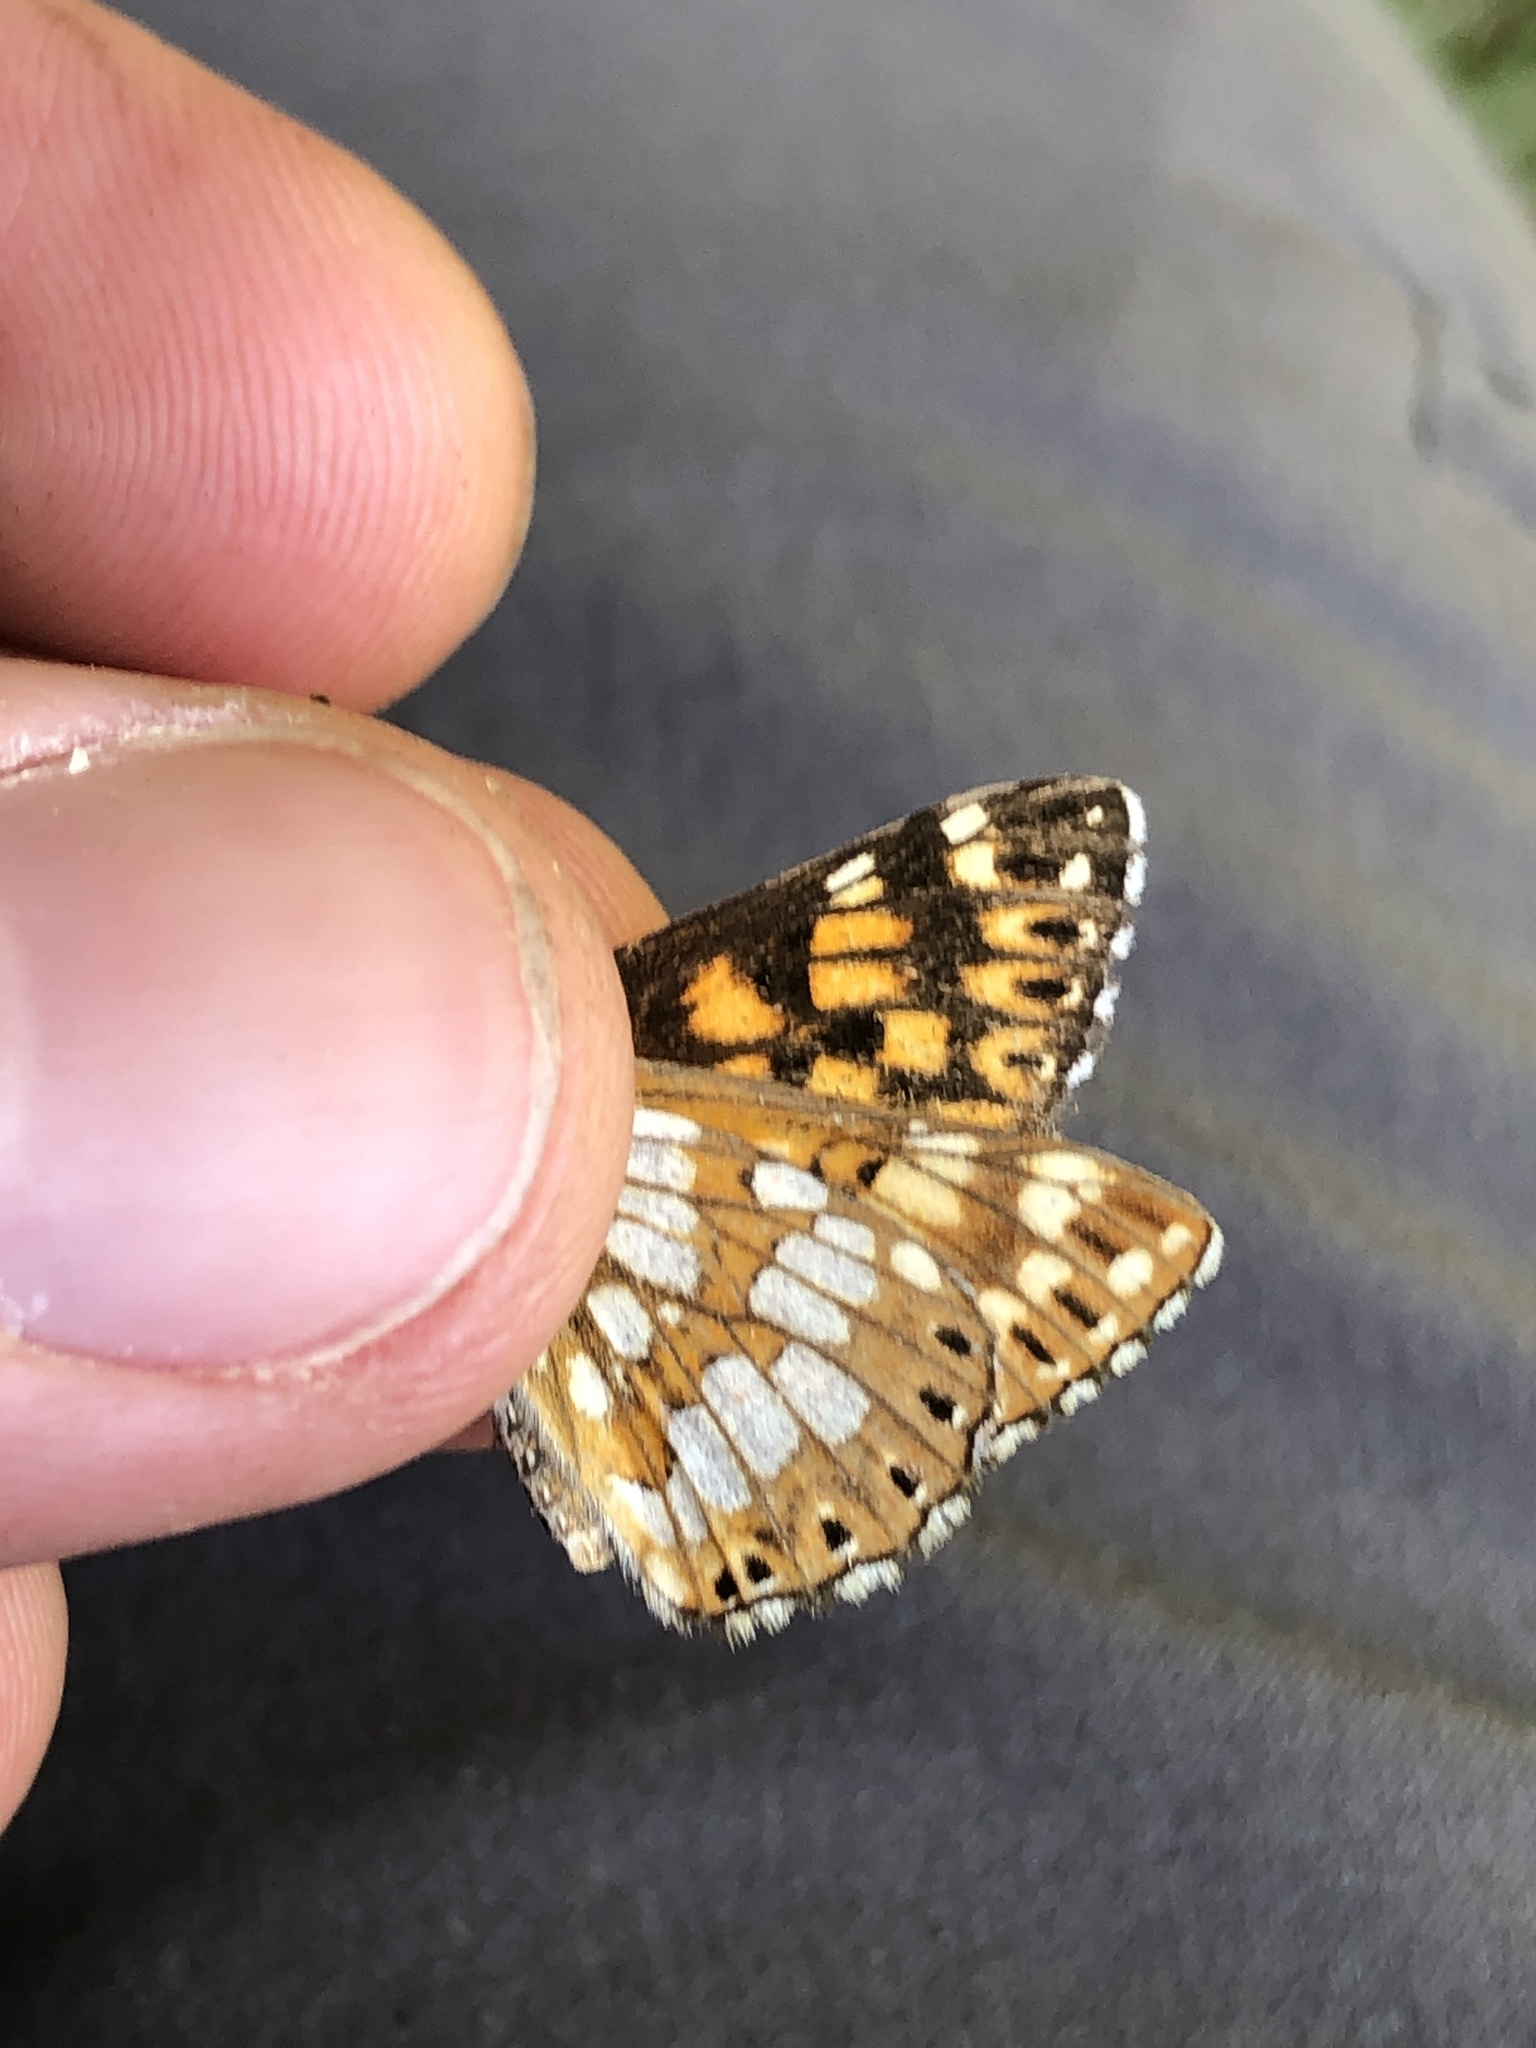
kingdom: Animalia
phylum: Arthropoda
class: Insecta
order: Lepidoptera
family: Riodinidae
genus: Hamearis
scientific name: Hamearis lucina
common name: Duke of burgundy fritillary
